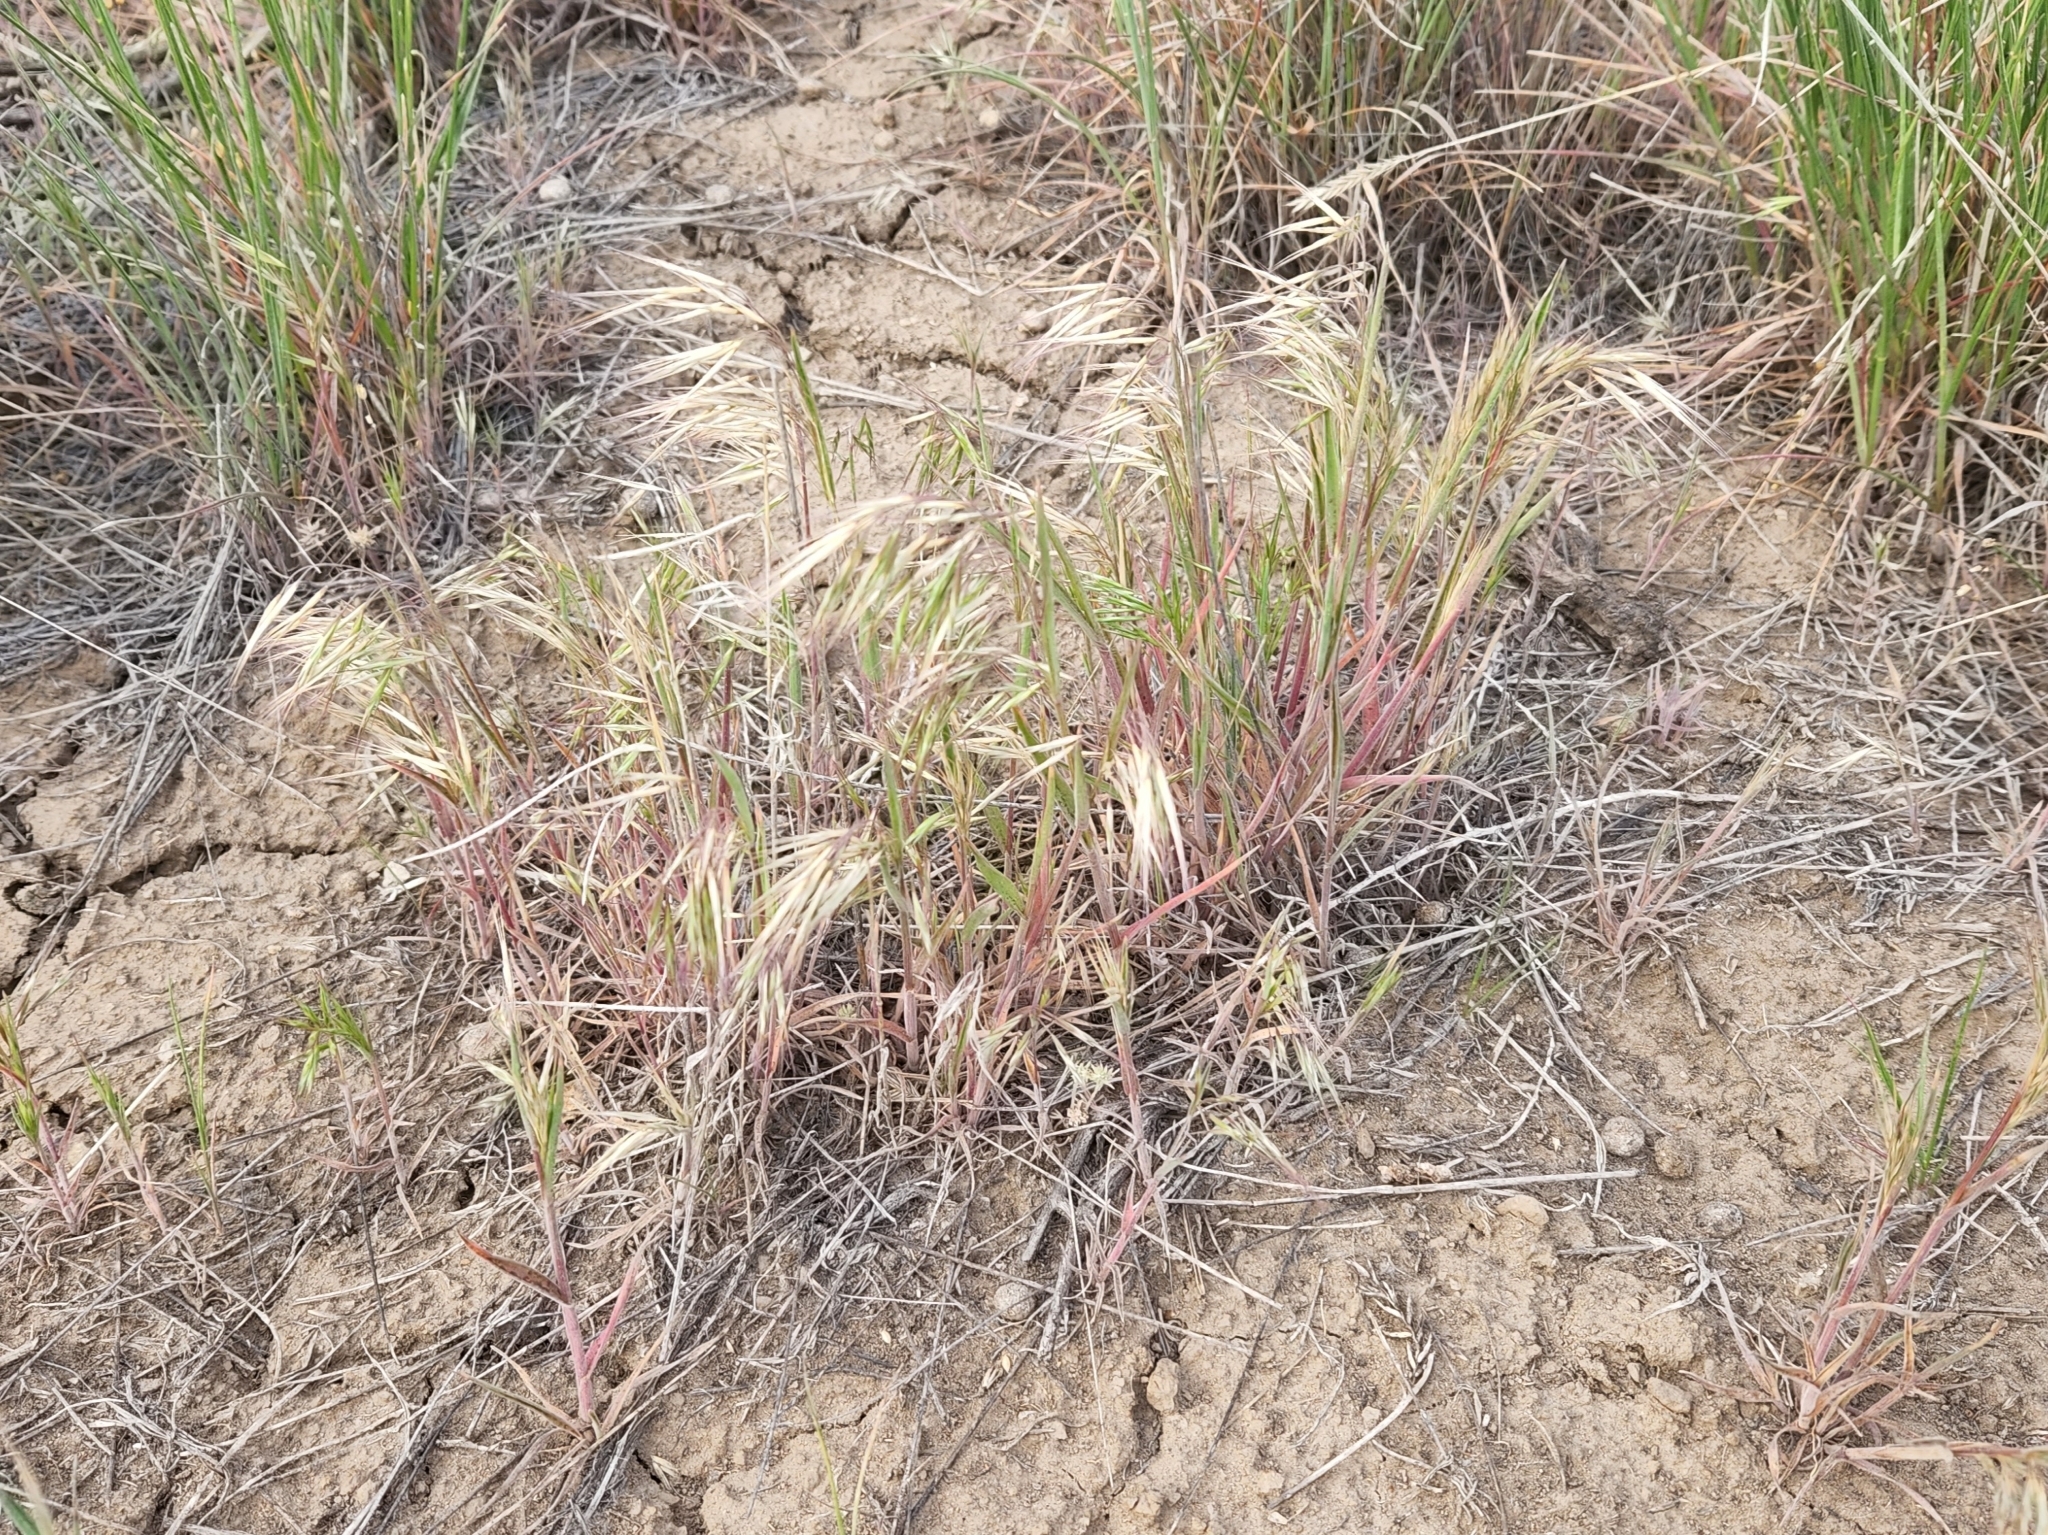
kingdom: Plantae
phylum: Tracheophyta
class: Liliopsida
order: Poales
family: Poaceae
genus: Bromus
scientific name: Bromus tectorum
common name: Cheatgrass
